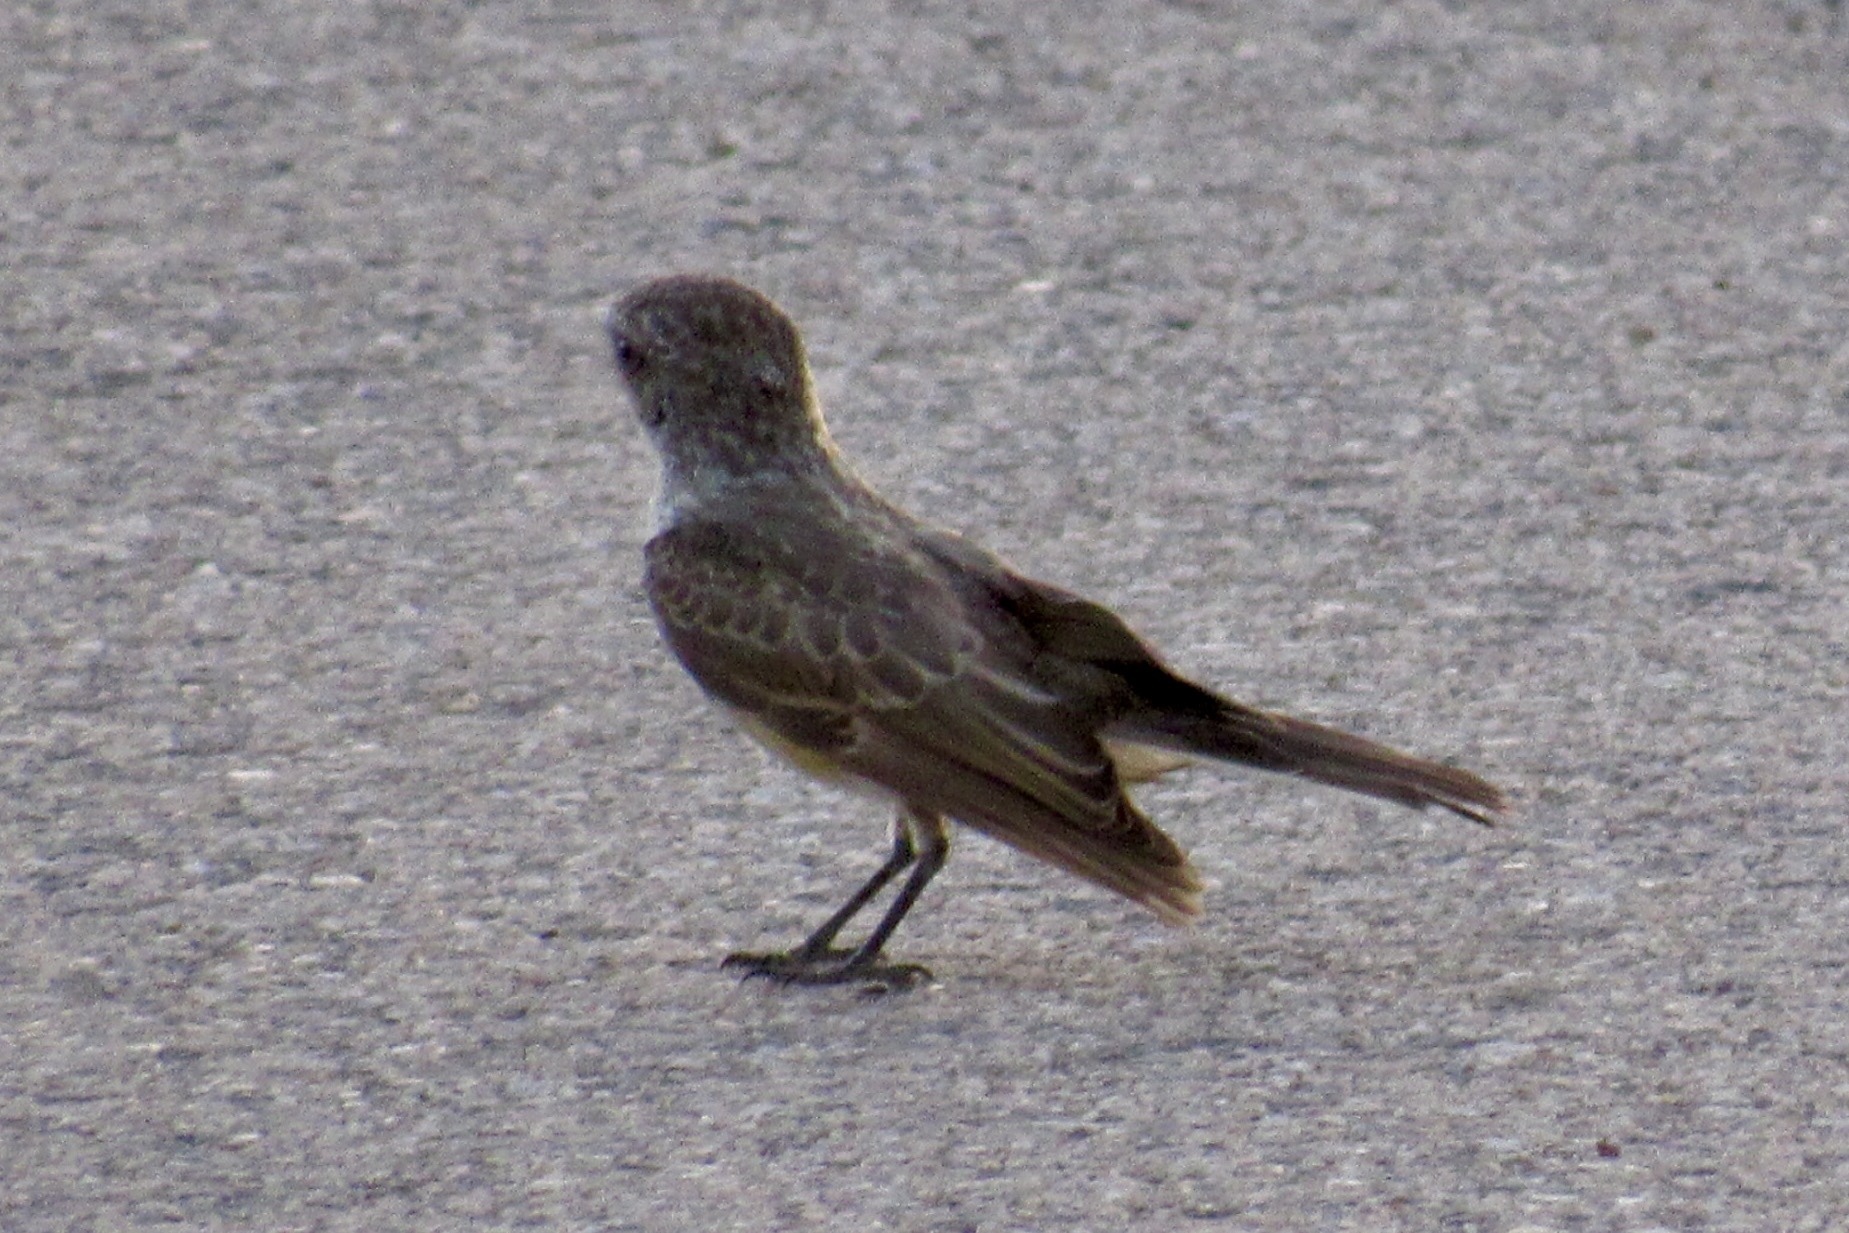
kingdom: Animalia
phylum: Chordata
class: Aves
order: Passeriformes
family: Tyrannidae
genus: Pyrocephalus
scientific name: Pyrocephalus rubinus
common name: Vermilion flycatcher
